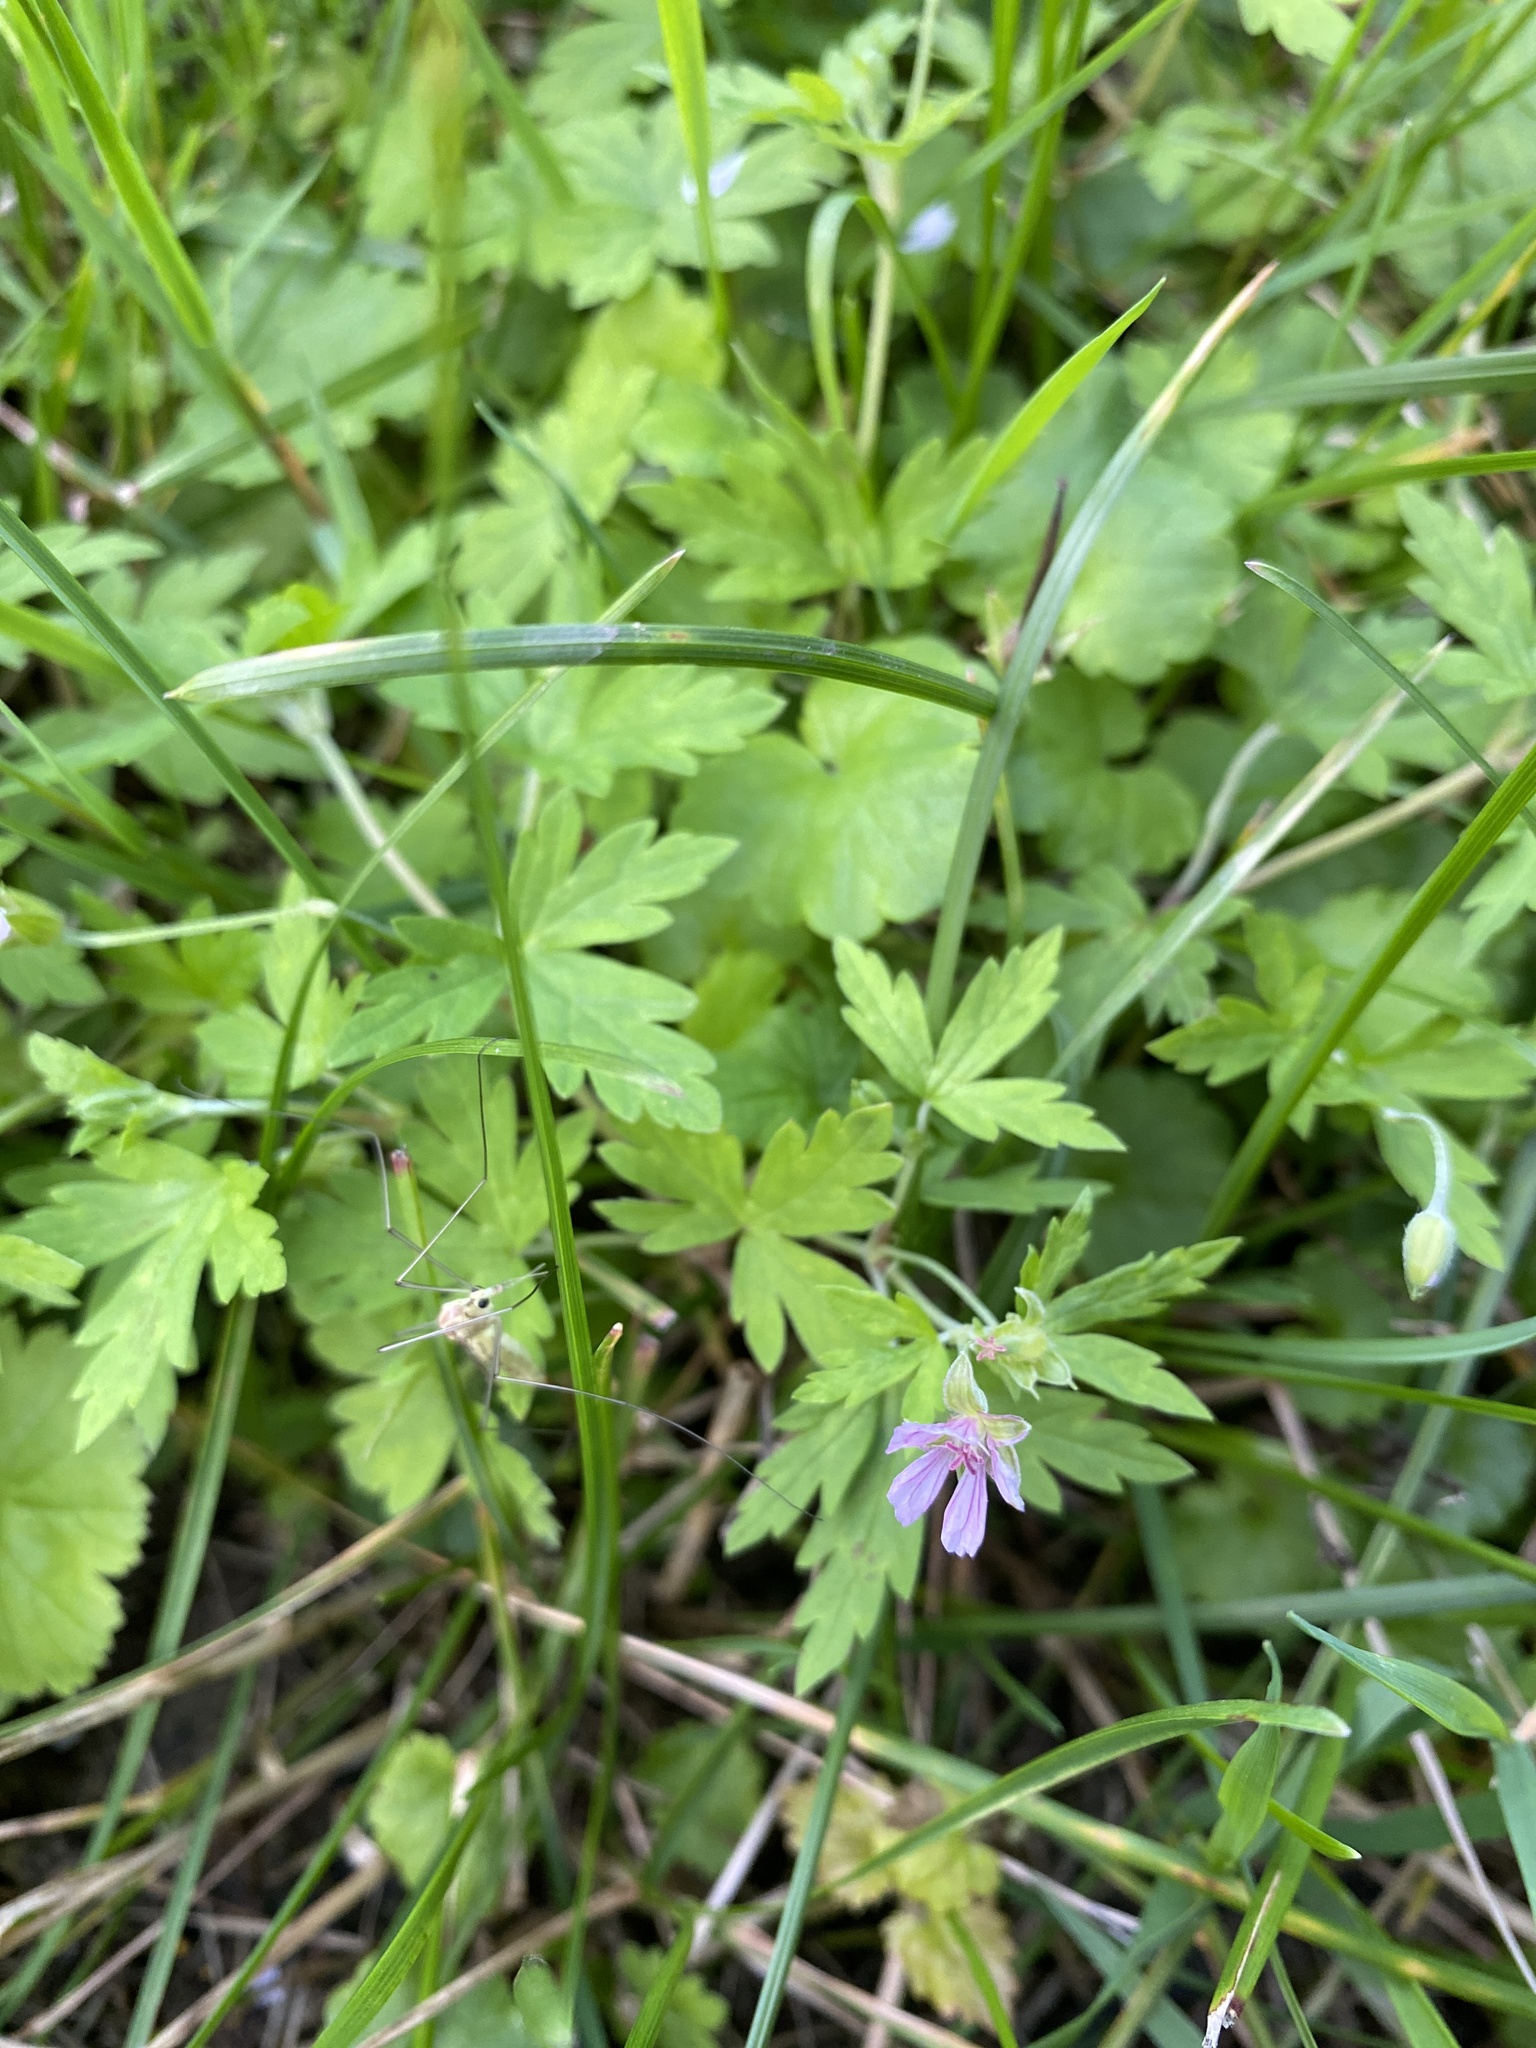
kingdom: Plantae
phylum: Tracheophyta
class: Magnoliopsida
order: Geraniales
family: Geraniaceae
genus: Geranium
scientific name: Geranium sibiricum
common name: Siberian crane's-bill
